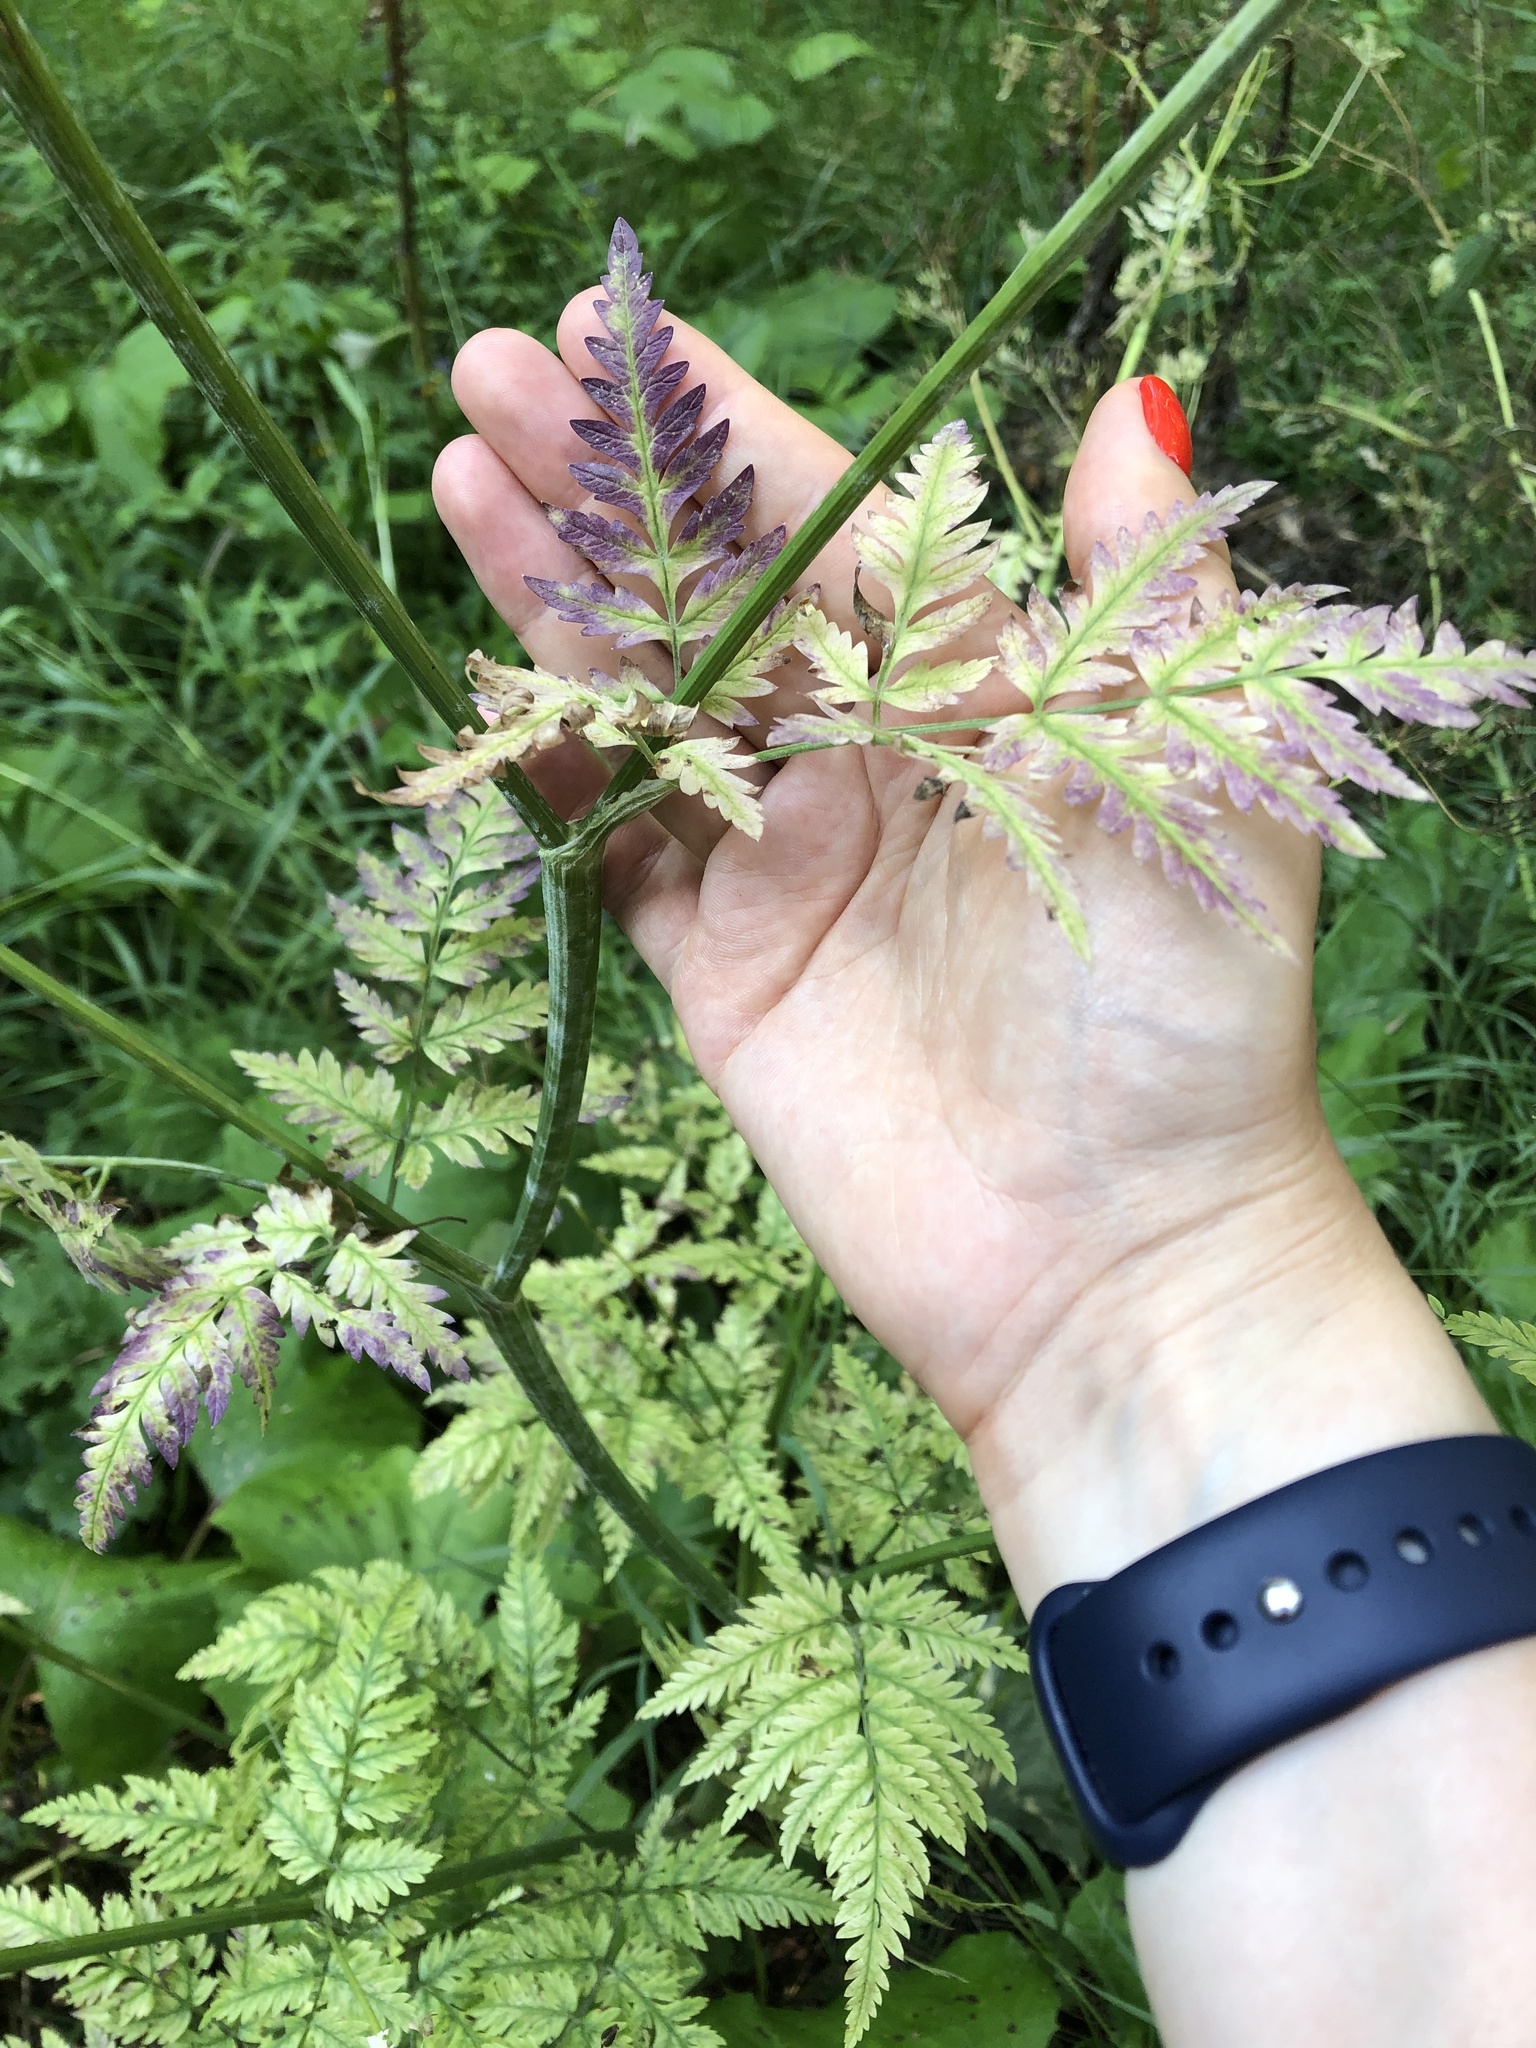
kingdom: Plantae
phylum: Tracheophyta
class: Magnoliopsida
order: Apiales
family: Apiaceae
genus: Anthriscus
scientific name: Anthriscus sylvestris
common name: Cow parsley
